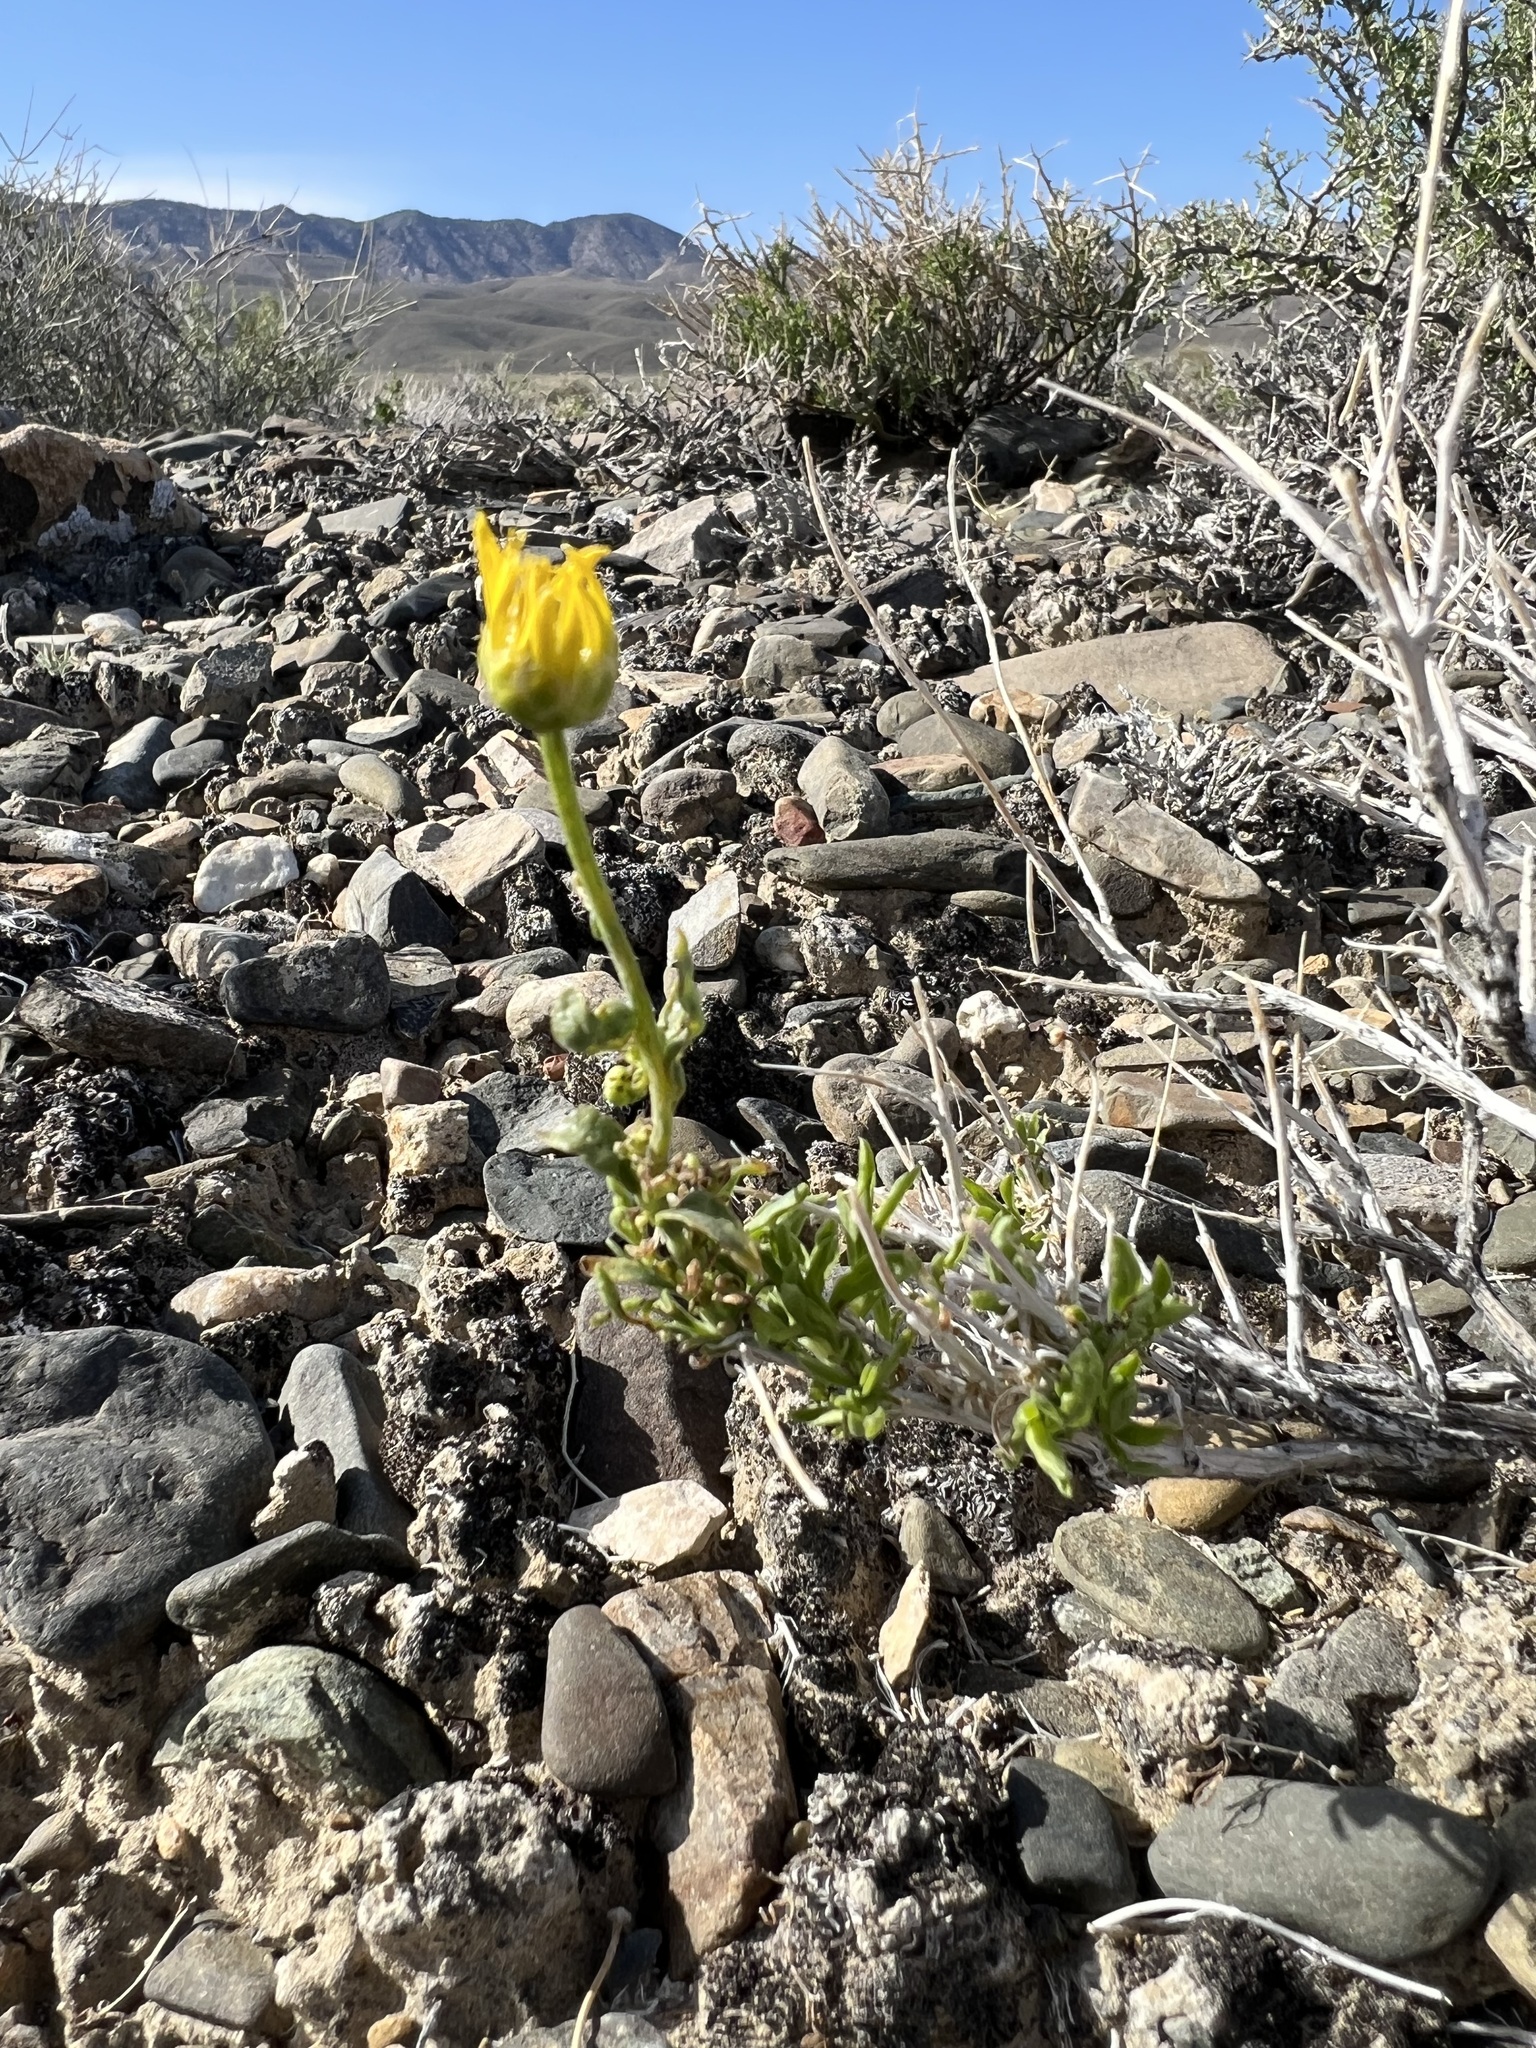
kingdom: Plantae
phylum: Tracheophyta
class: Magnoliopsida
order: Asterales
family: Asteraceae
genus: Acamptopappus
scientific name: Acamptopappus shockleyi
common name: Shockley's goldenhead
